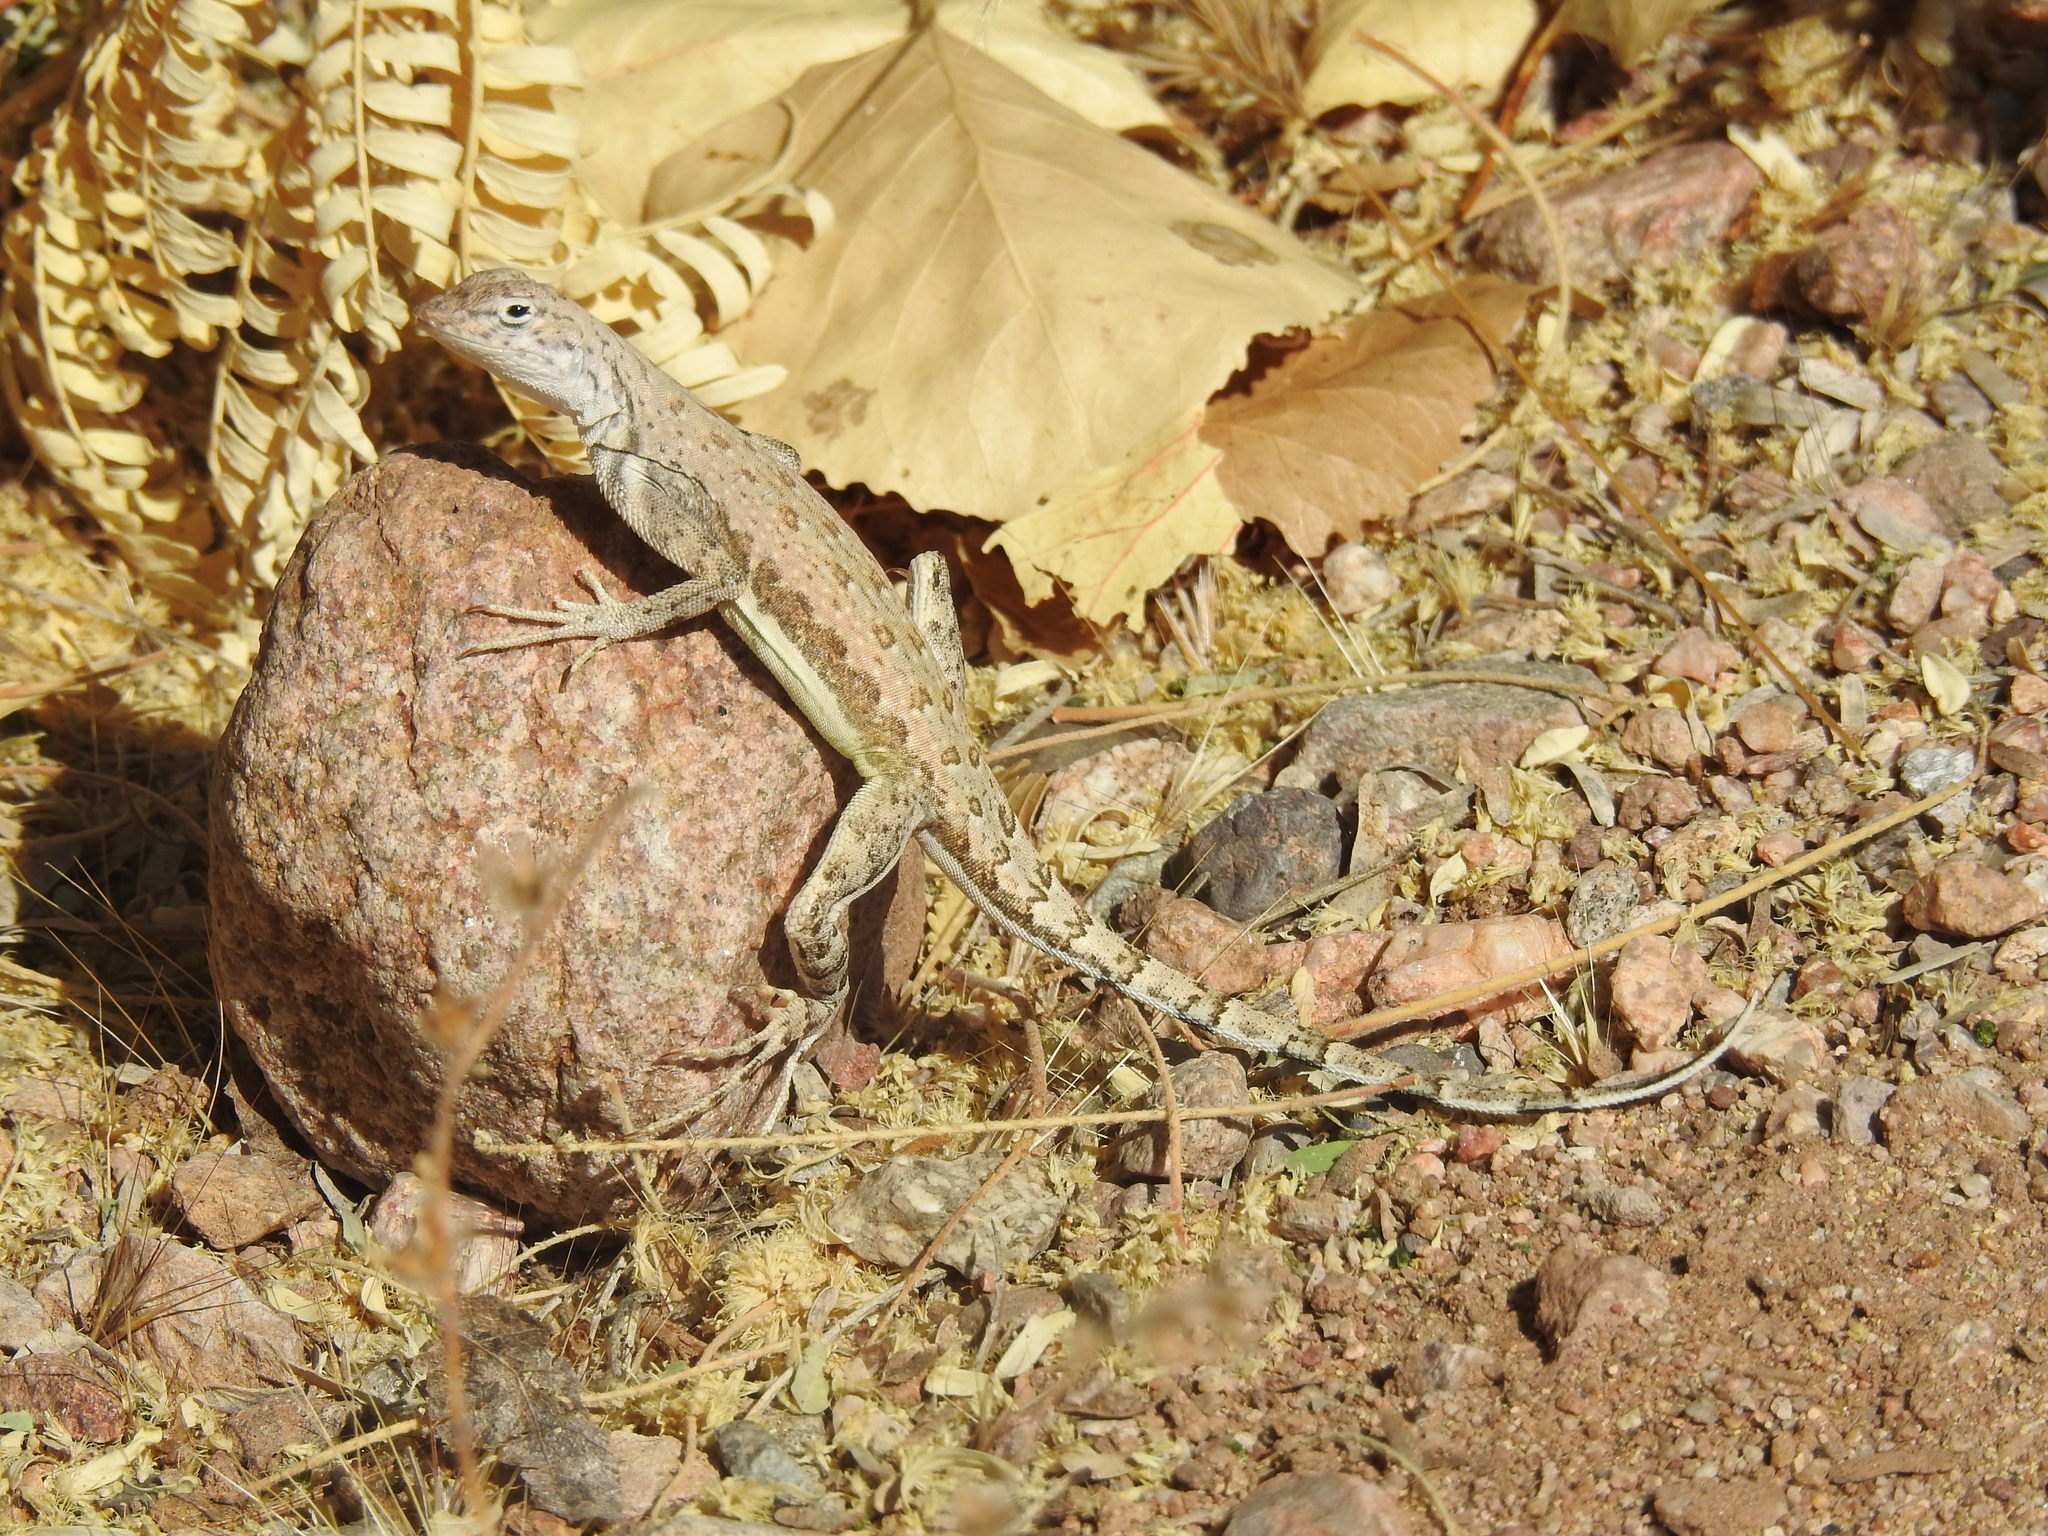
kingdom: Animalia
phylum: Chordata
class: Squamata
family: Phrynosomatidae
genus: Callisaurus
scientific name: Callisaurus draconoides
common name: Zebra-tailed lizard
